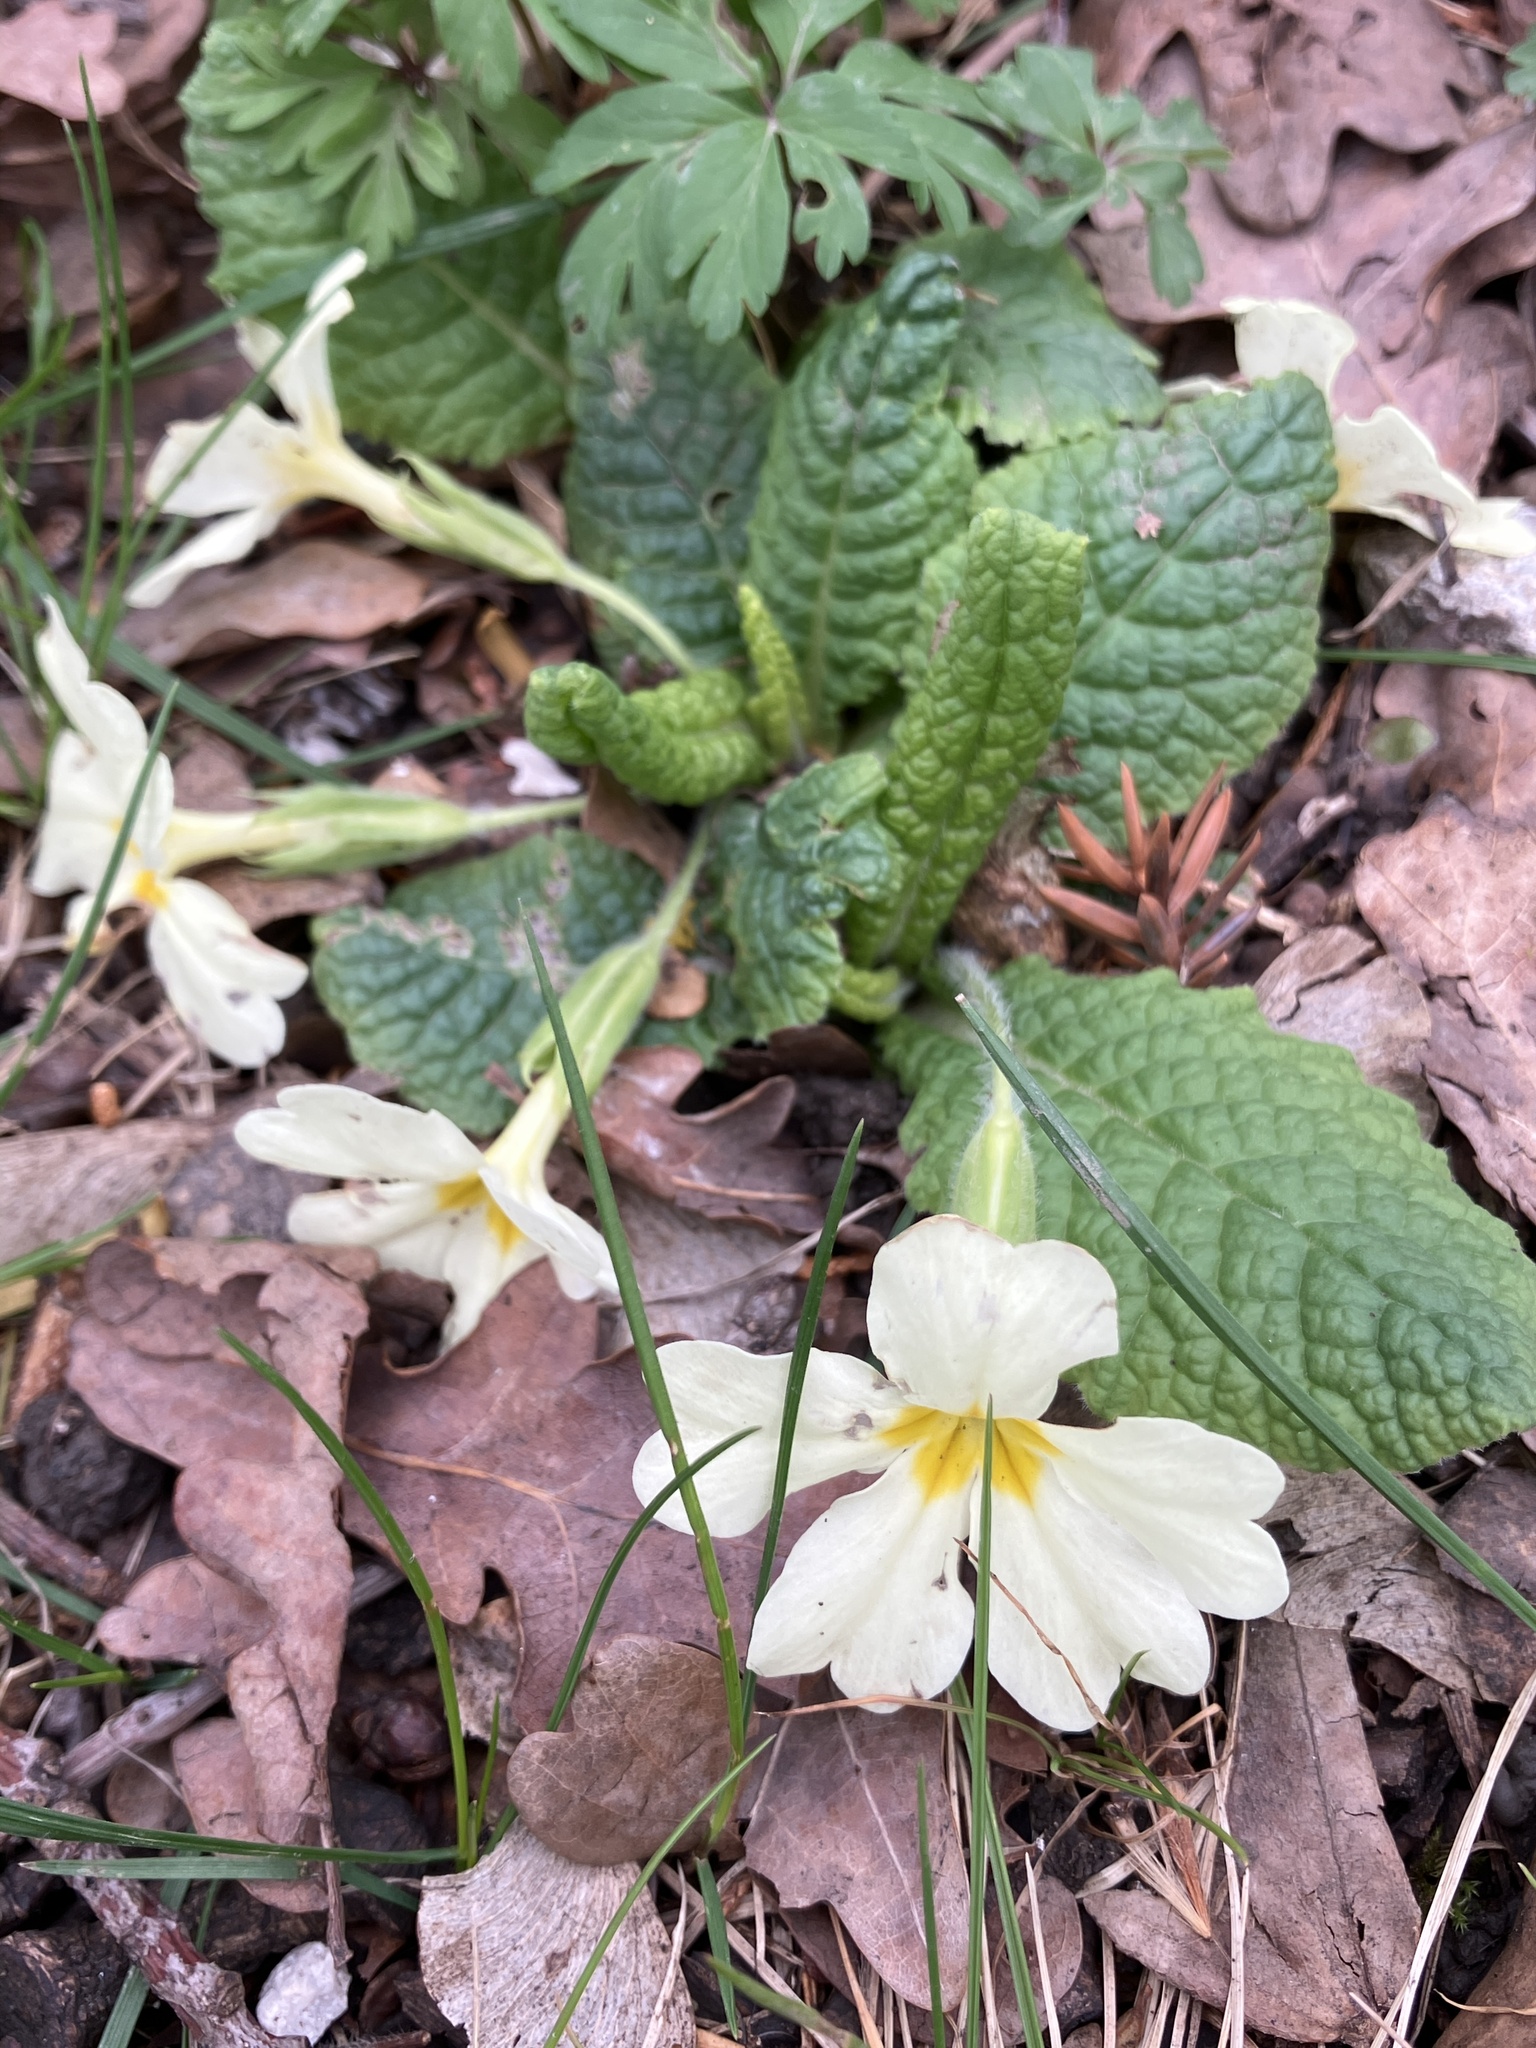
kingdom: Plantae
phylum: Tracheophyta
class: Magnoliopsida
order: Ericales
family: Primulaceae
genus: Primula
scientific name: Primula vulgaris
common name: Primrose
